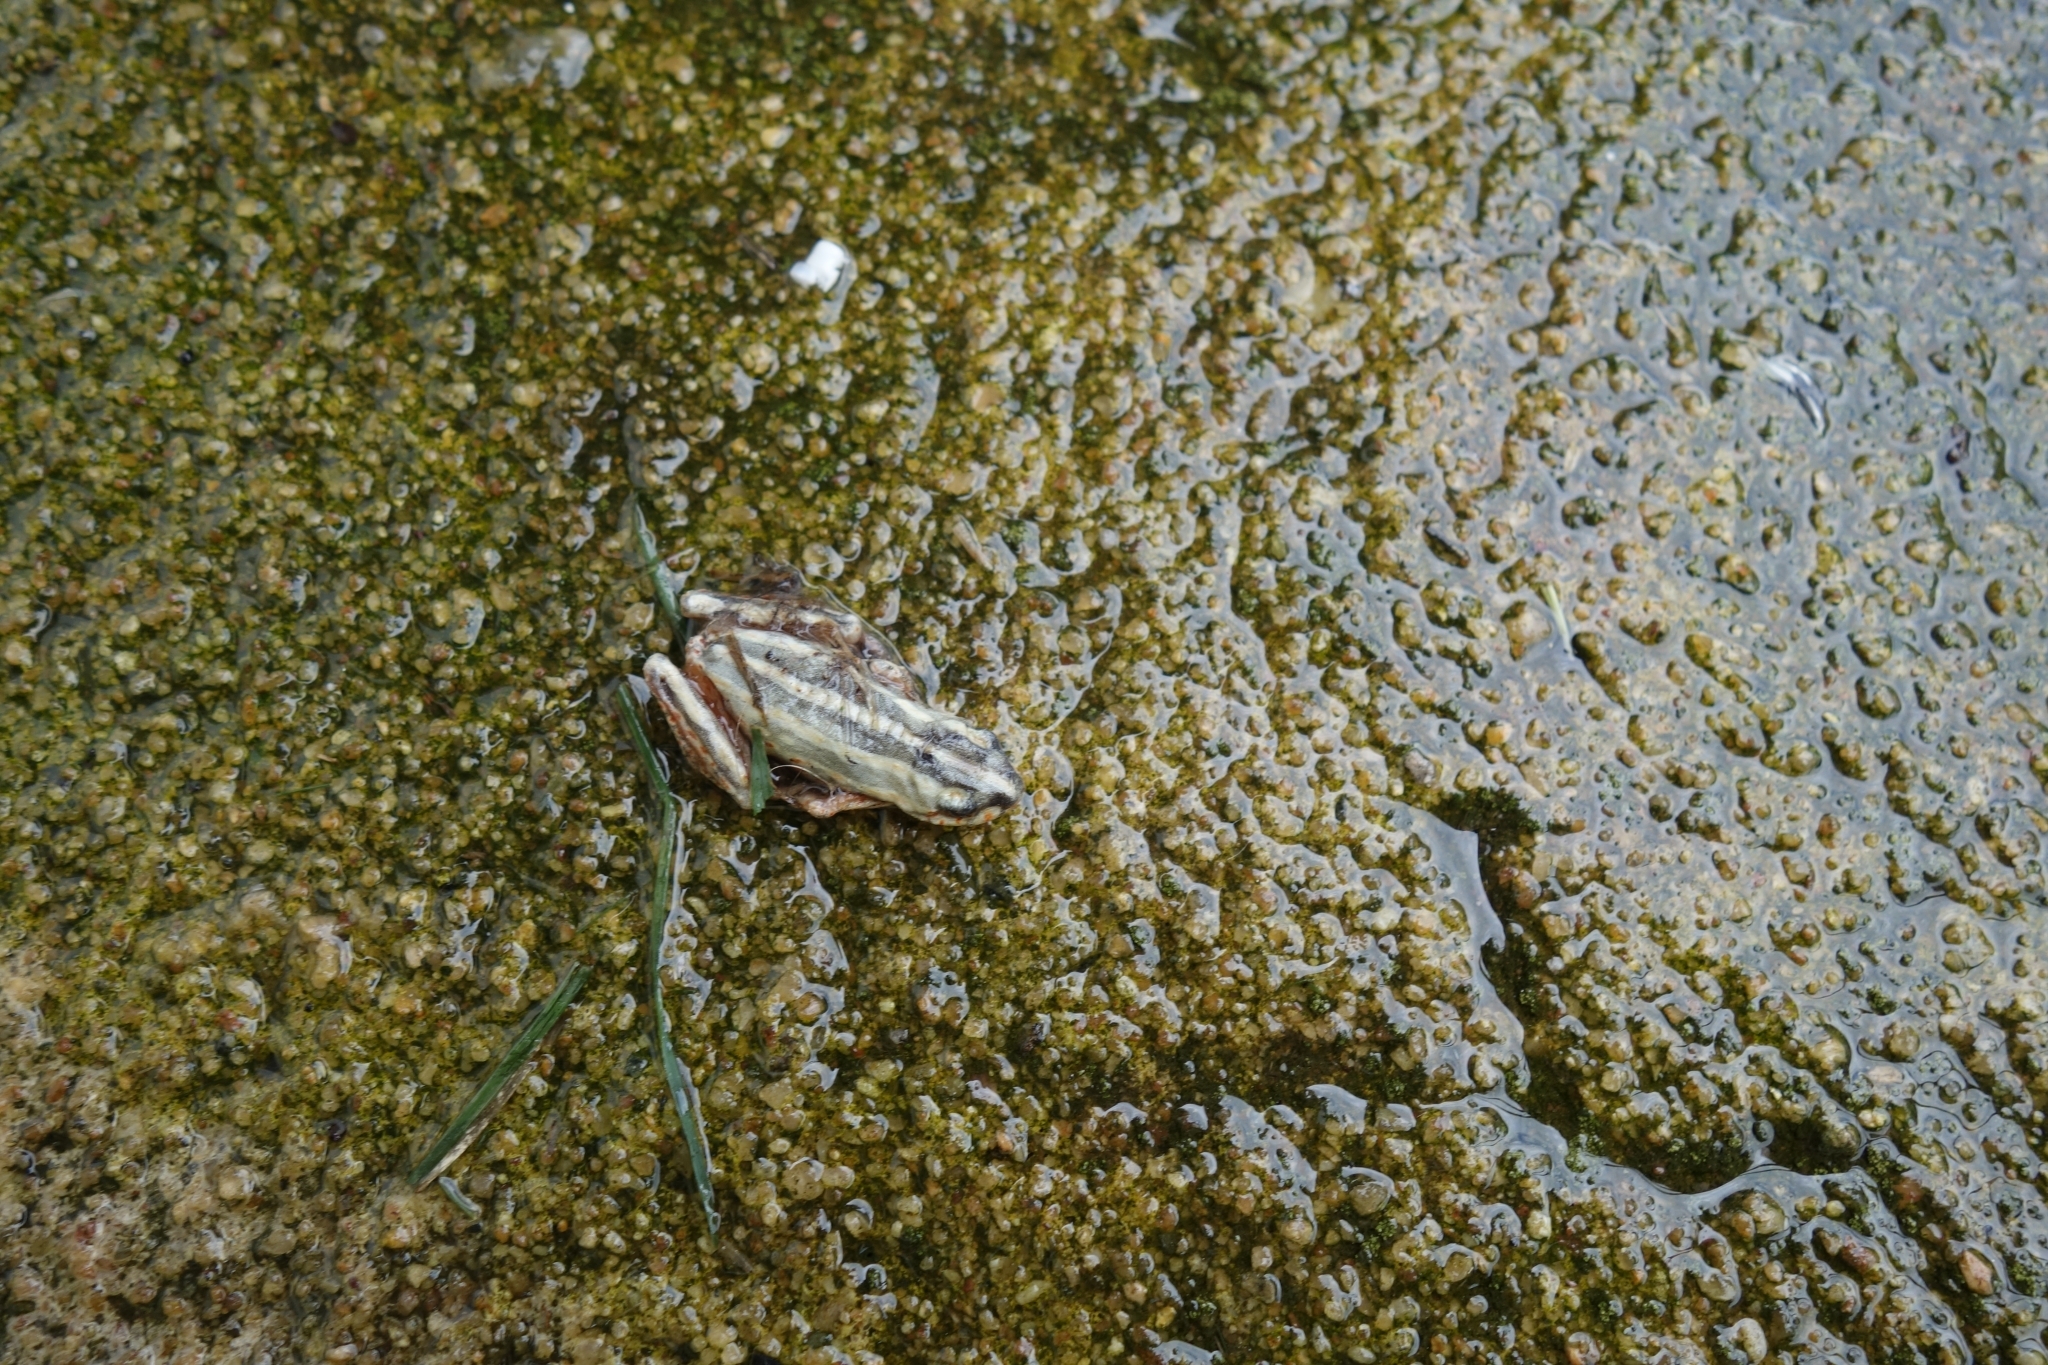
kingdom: Animalia
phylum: Chordata
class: Amphibia
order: Anura
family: Hyperoliidae
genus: Hyperolius
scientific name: Hyperolius marmoratus
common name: Painted reed frog
